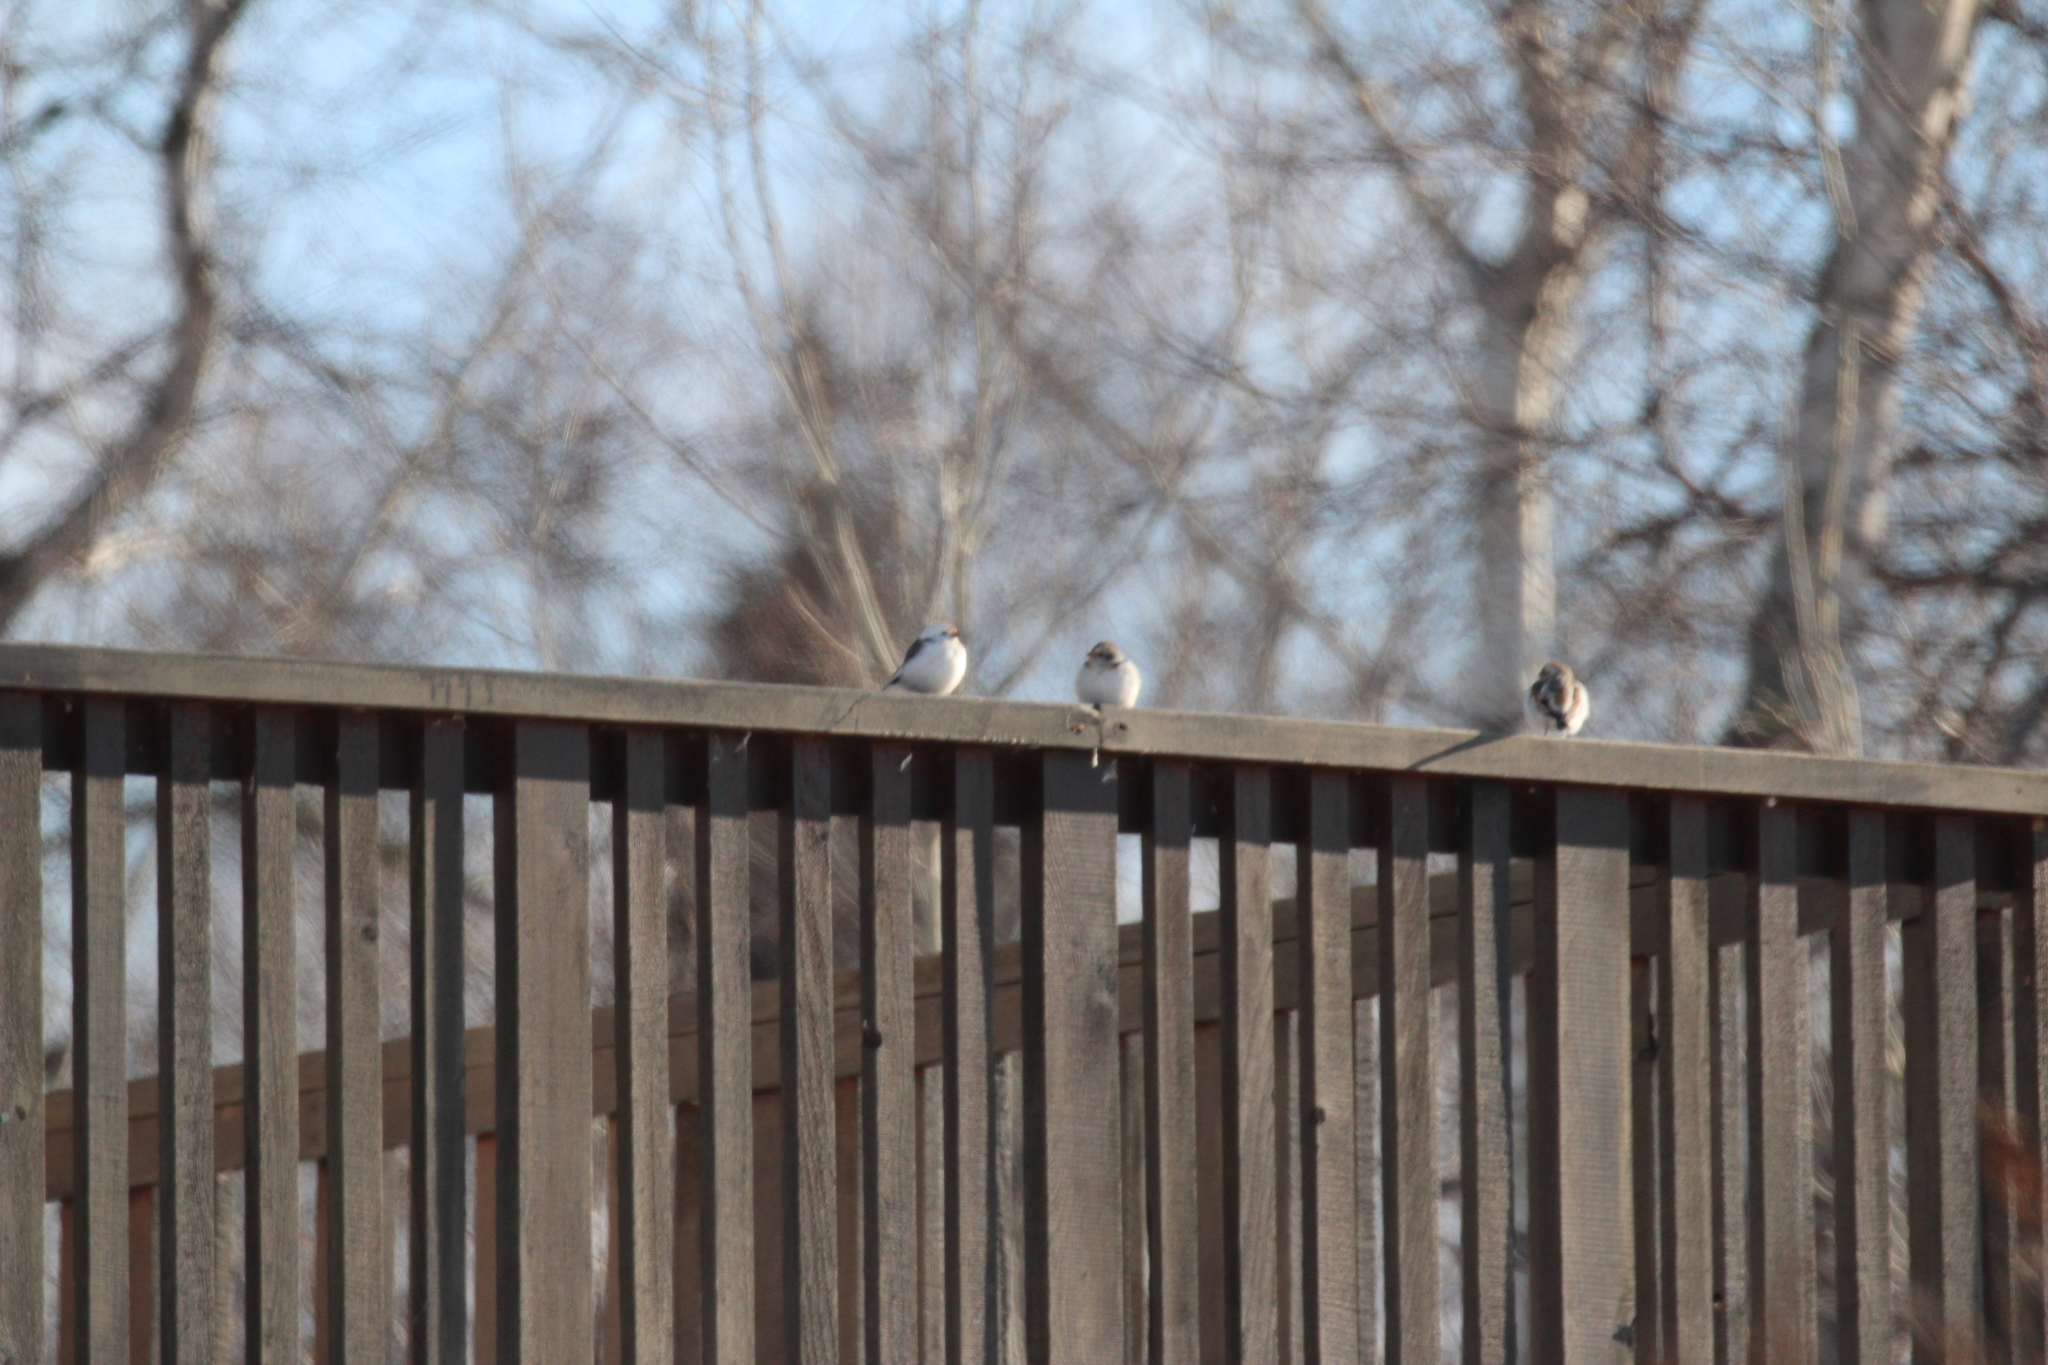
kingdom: Animalia
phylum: Chordata
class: Aves
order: Passeriformes
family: Calcariidae
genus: Plectrophenax
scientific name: Plectrophenax nivalis
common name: Snow bunting
